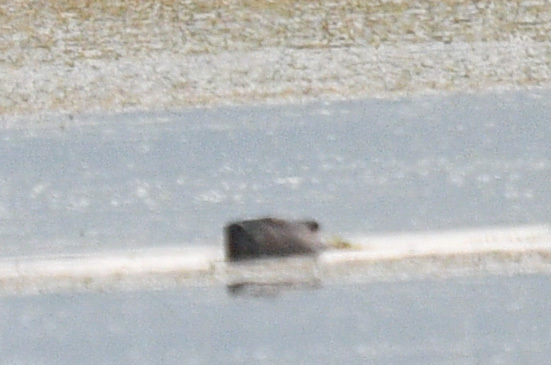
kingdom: Animalia
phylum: Chordata
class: Mammalia
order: Rodentia
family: Castoridae
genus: Castor
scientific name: Castor canadensis
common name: American beaver
